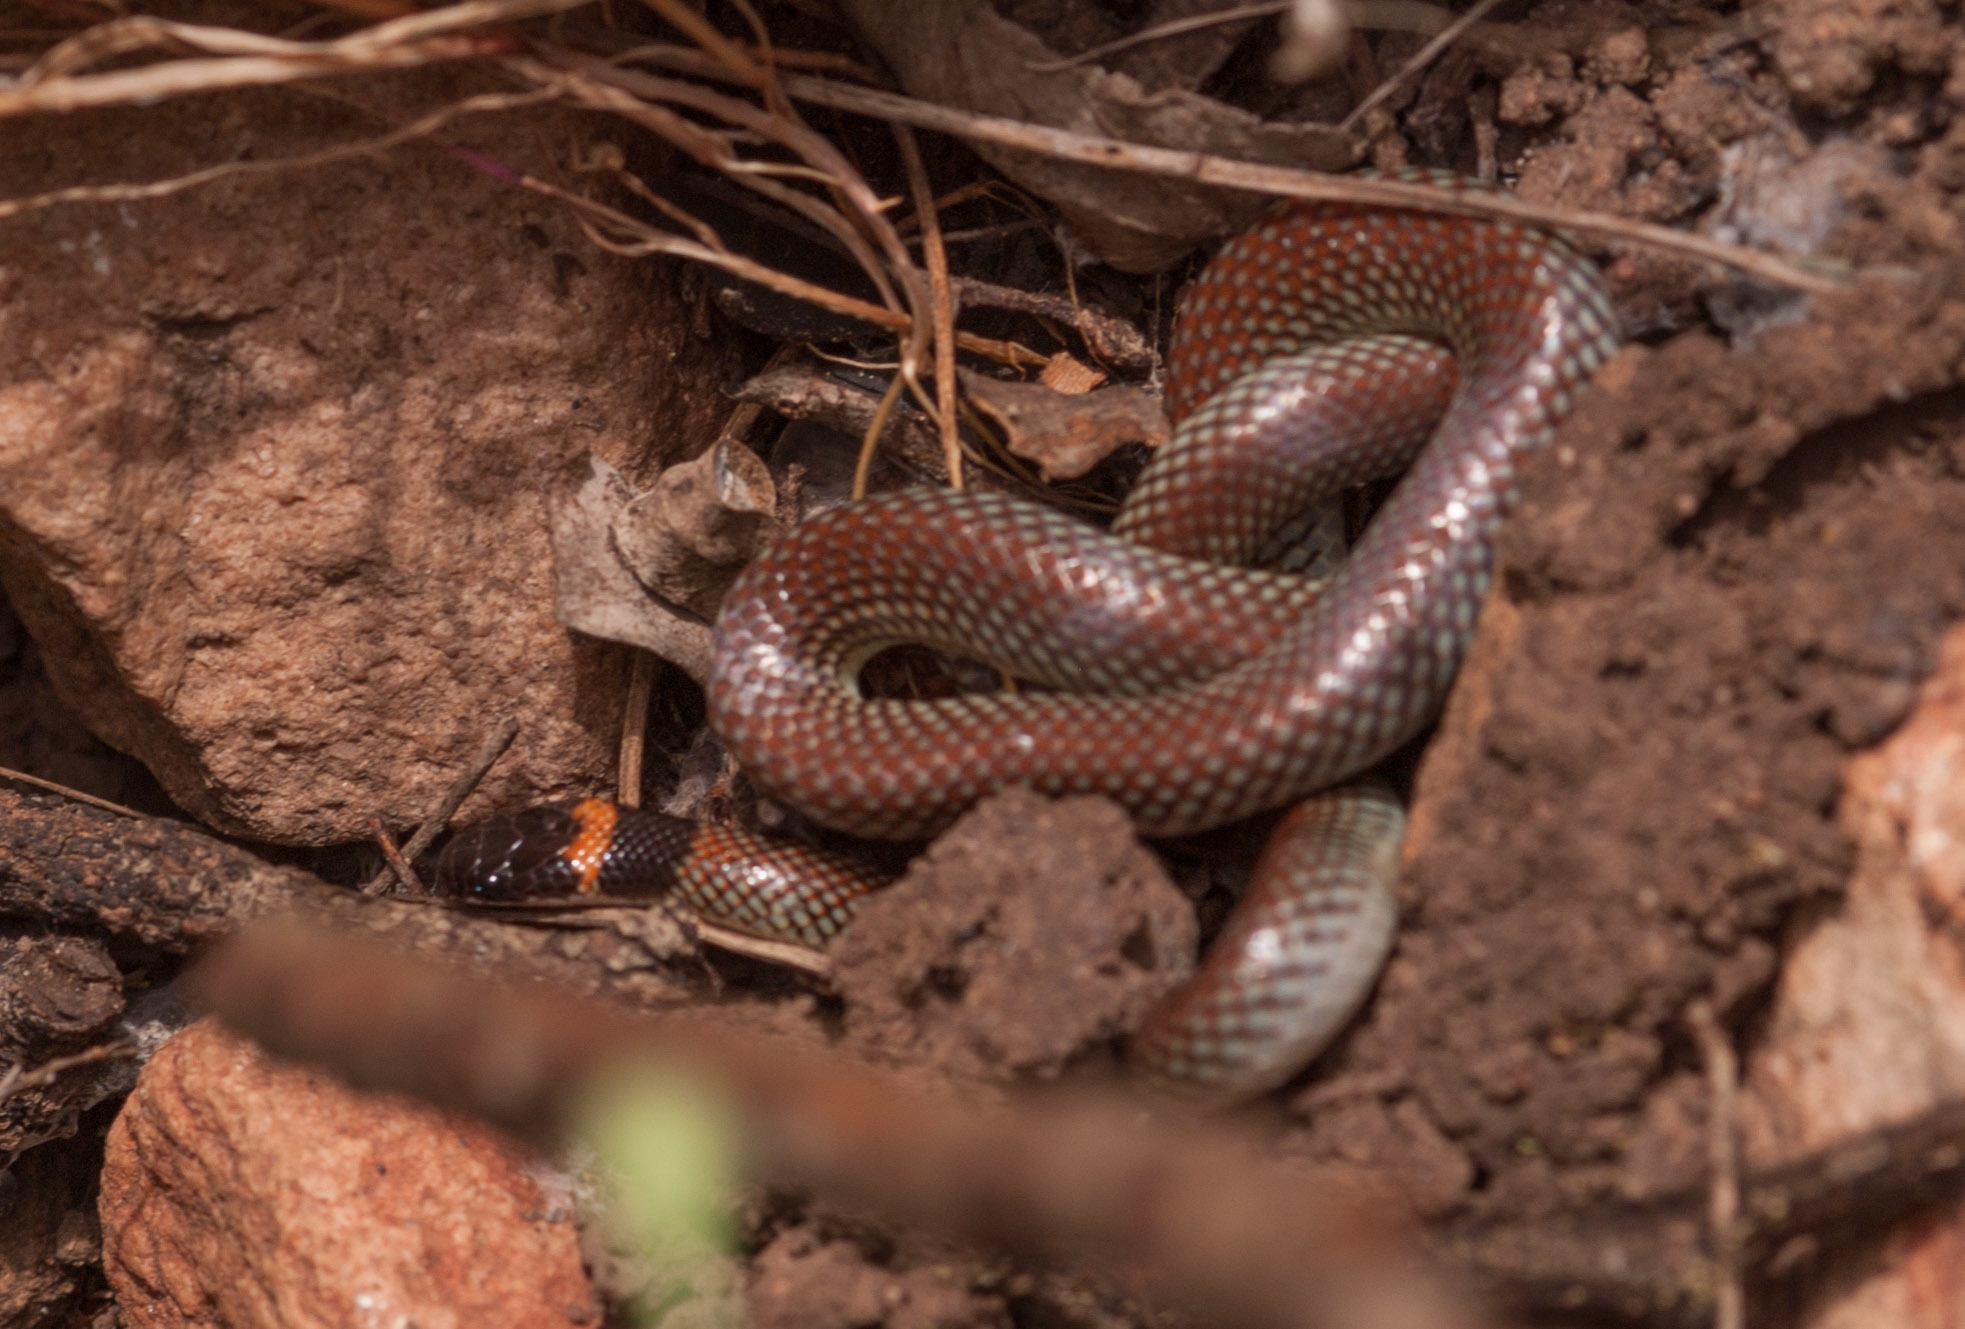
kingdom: Animalia
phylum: Chordata
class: Squamata
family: Elapidae
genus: Furina
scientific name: Furina diadema
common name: Red-naped snake
